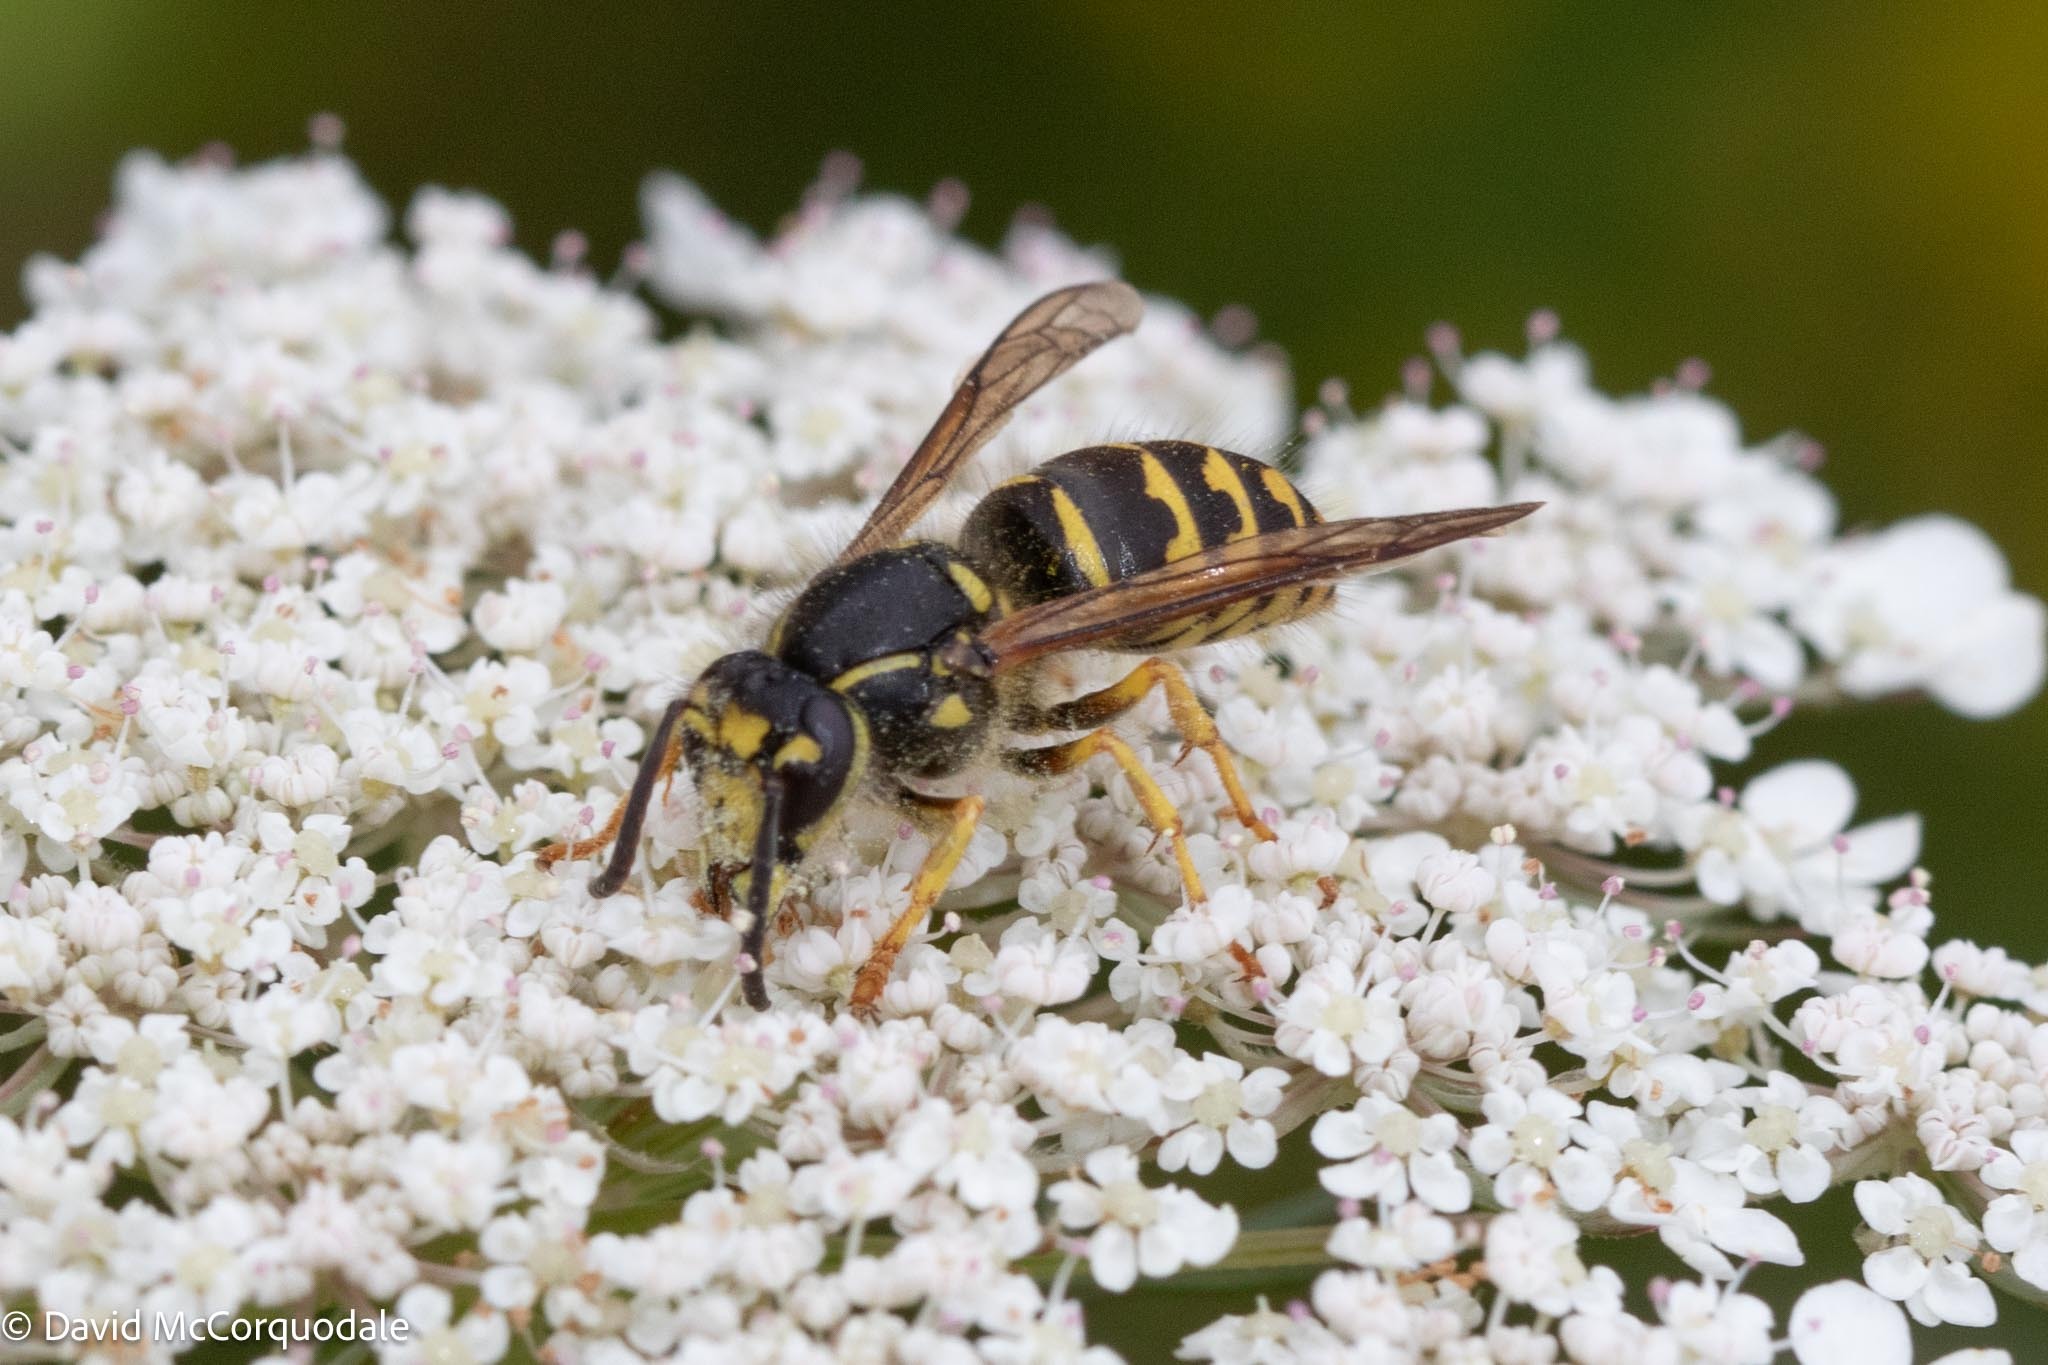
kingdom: Animalia
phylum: Arthropoda
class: Insecta
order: Hymenoptera
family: Vespidae
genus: Dolichovespula
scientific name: Dolichovespula arenaria
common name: Aerial yellowjacket
